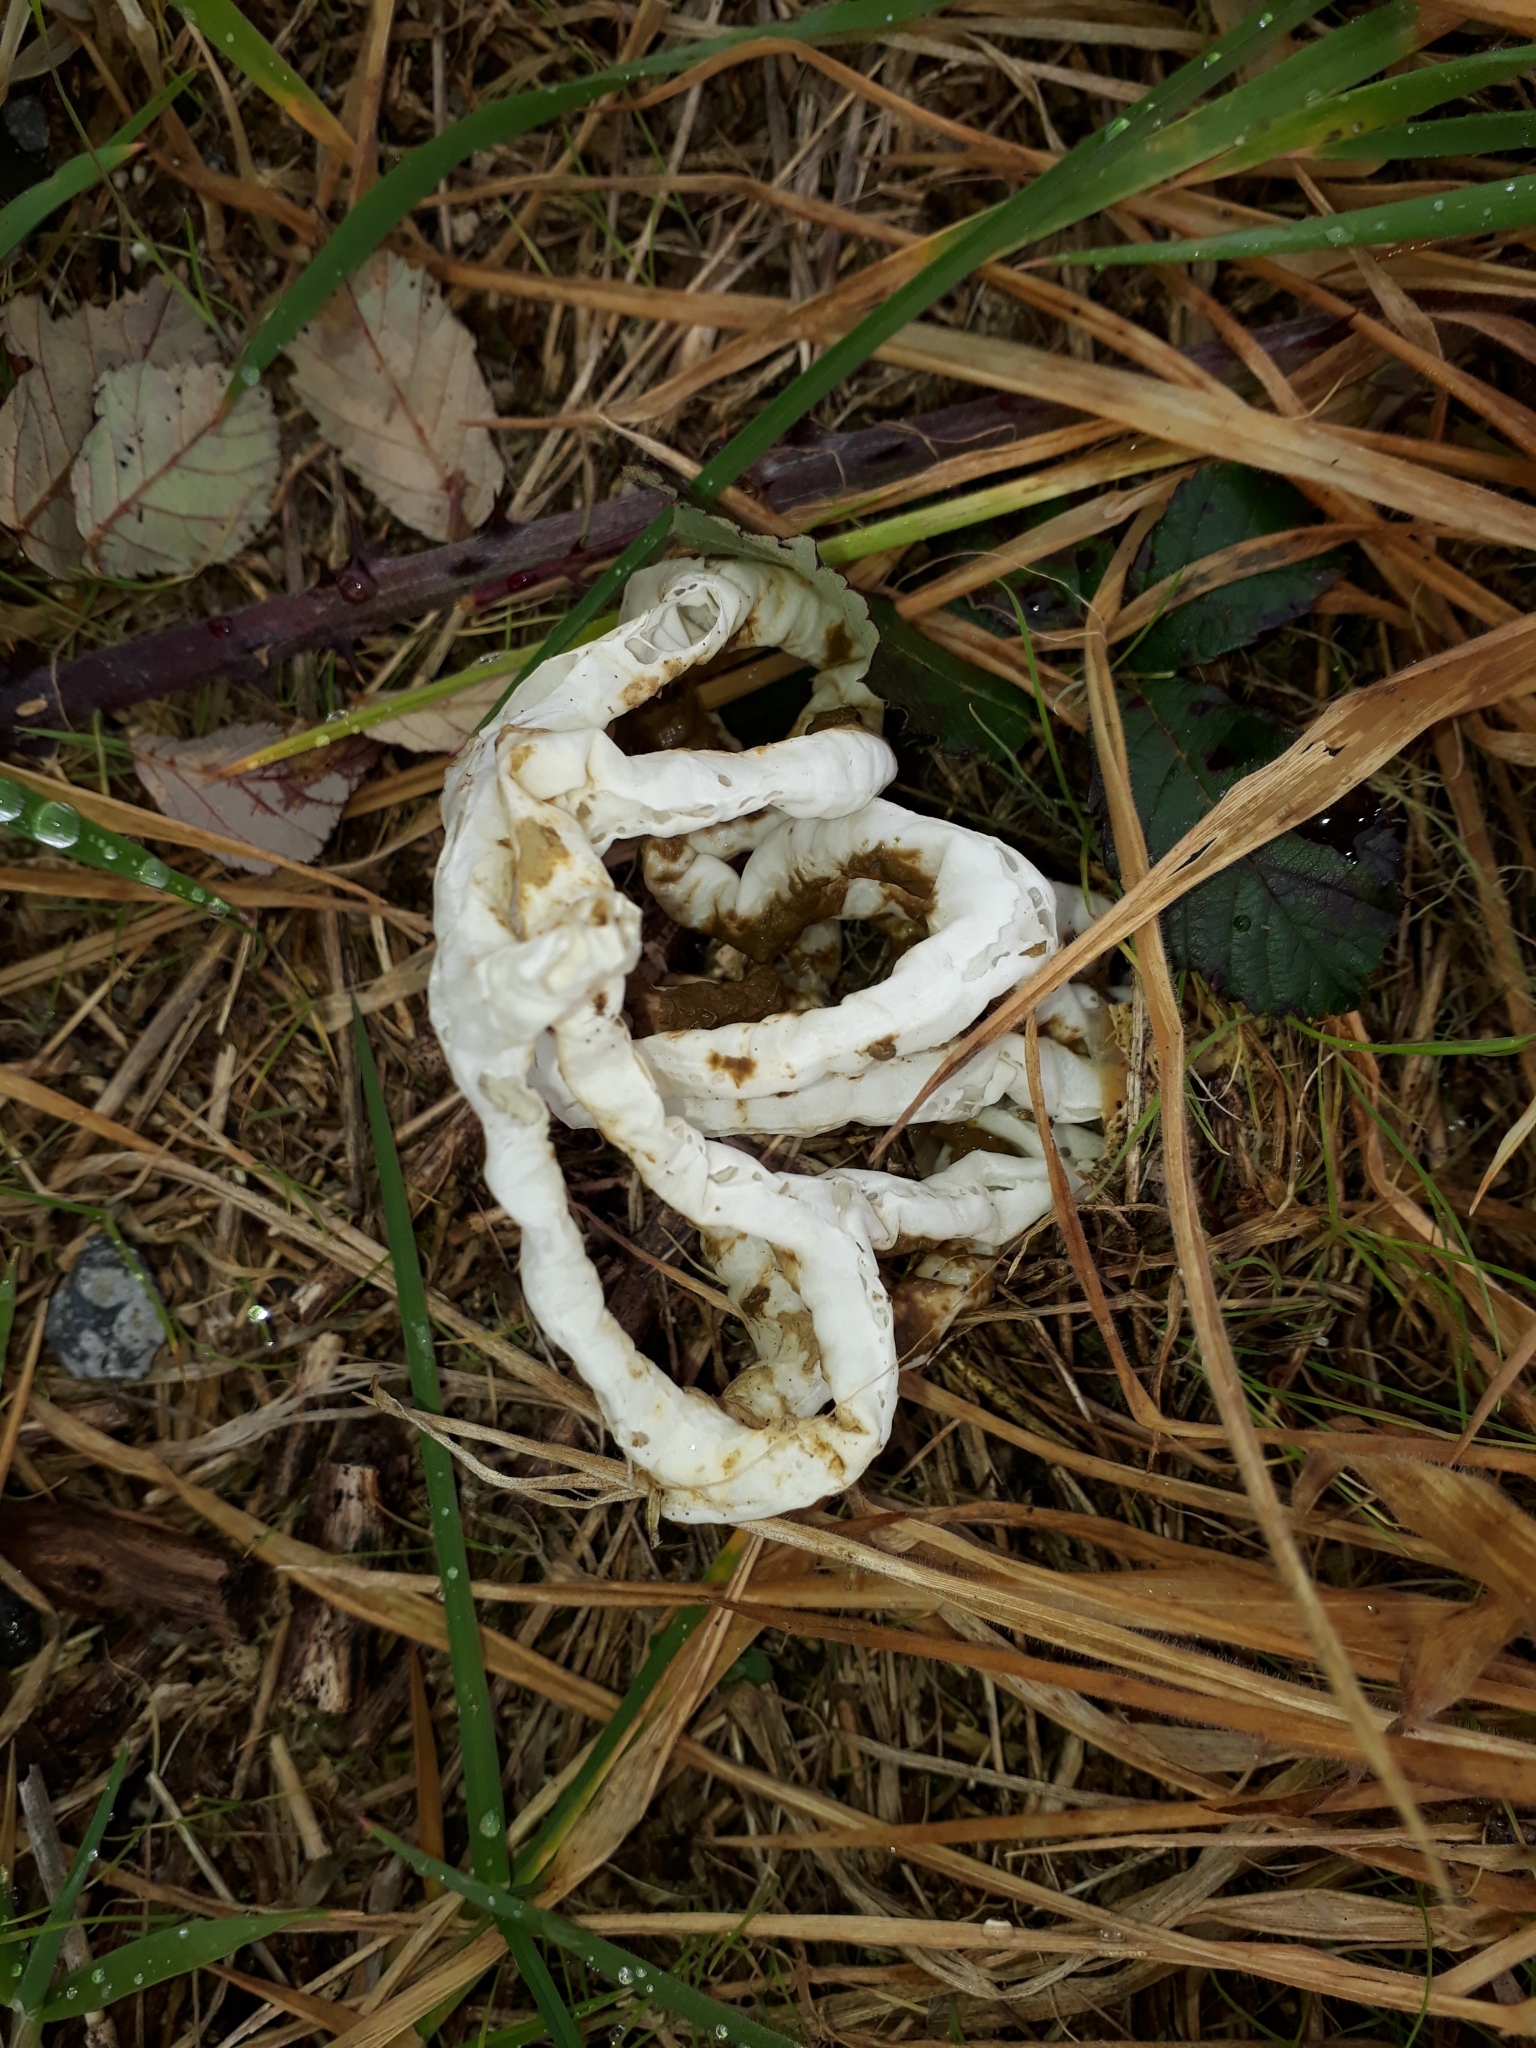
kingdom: Fungi
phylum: Basidiomycota
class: Agaricomycetes
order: Phallales
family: Phallaceae
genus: Ileodictyon
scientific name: Ileodictyon cibarium
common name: Basket fungus
